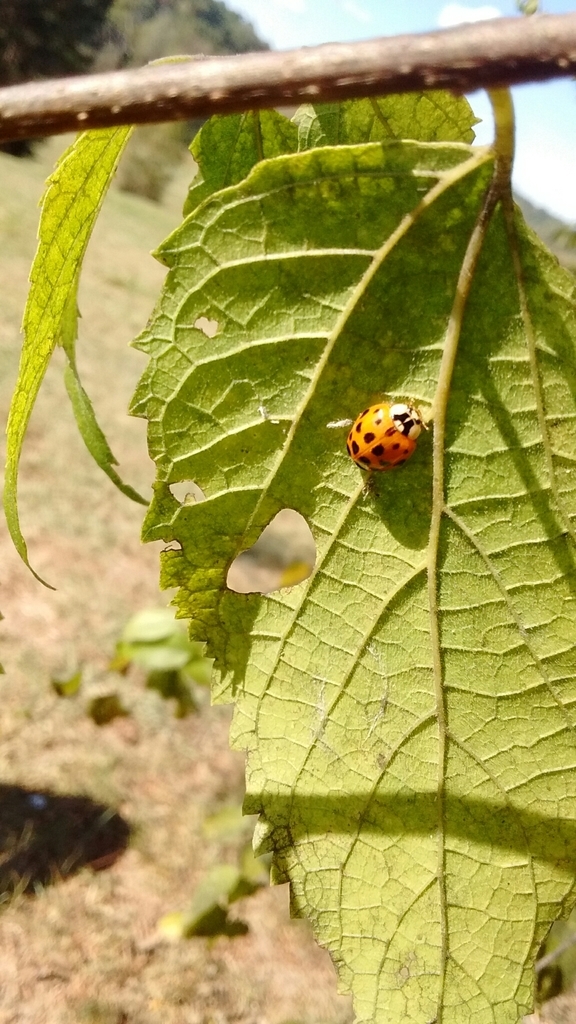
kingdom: Animalia
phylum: Arthropoda
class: Insecta
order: Coleoptera
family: Coccinellidae
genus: Harmonia
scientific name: Harmonia axyridis
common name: Harlequin ladybird
